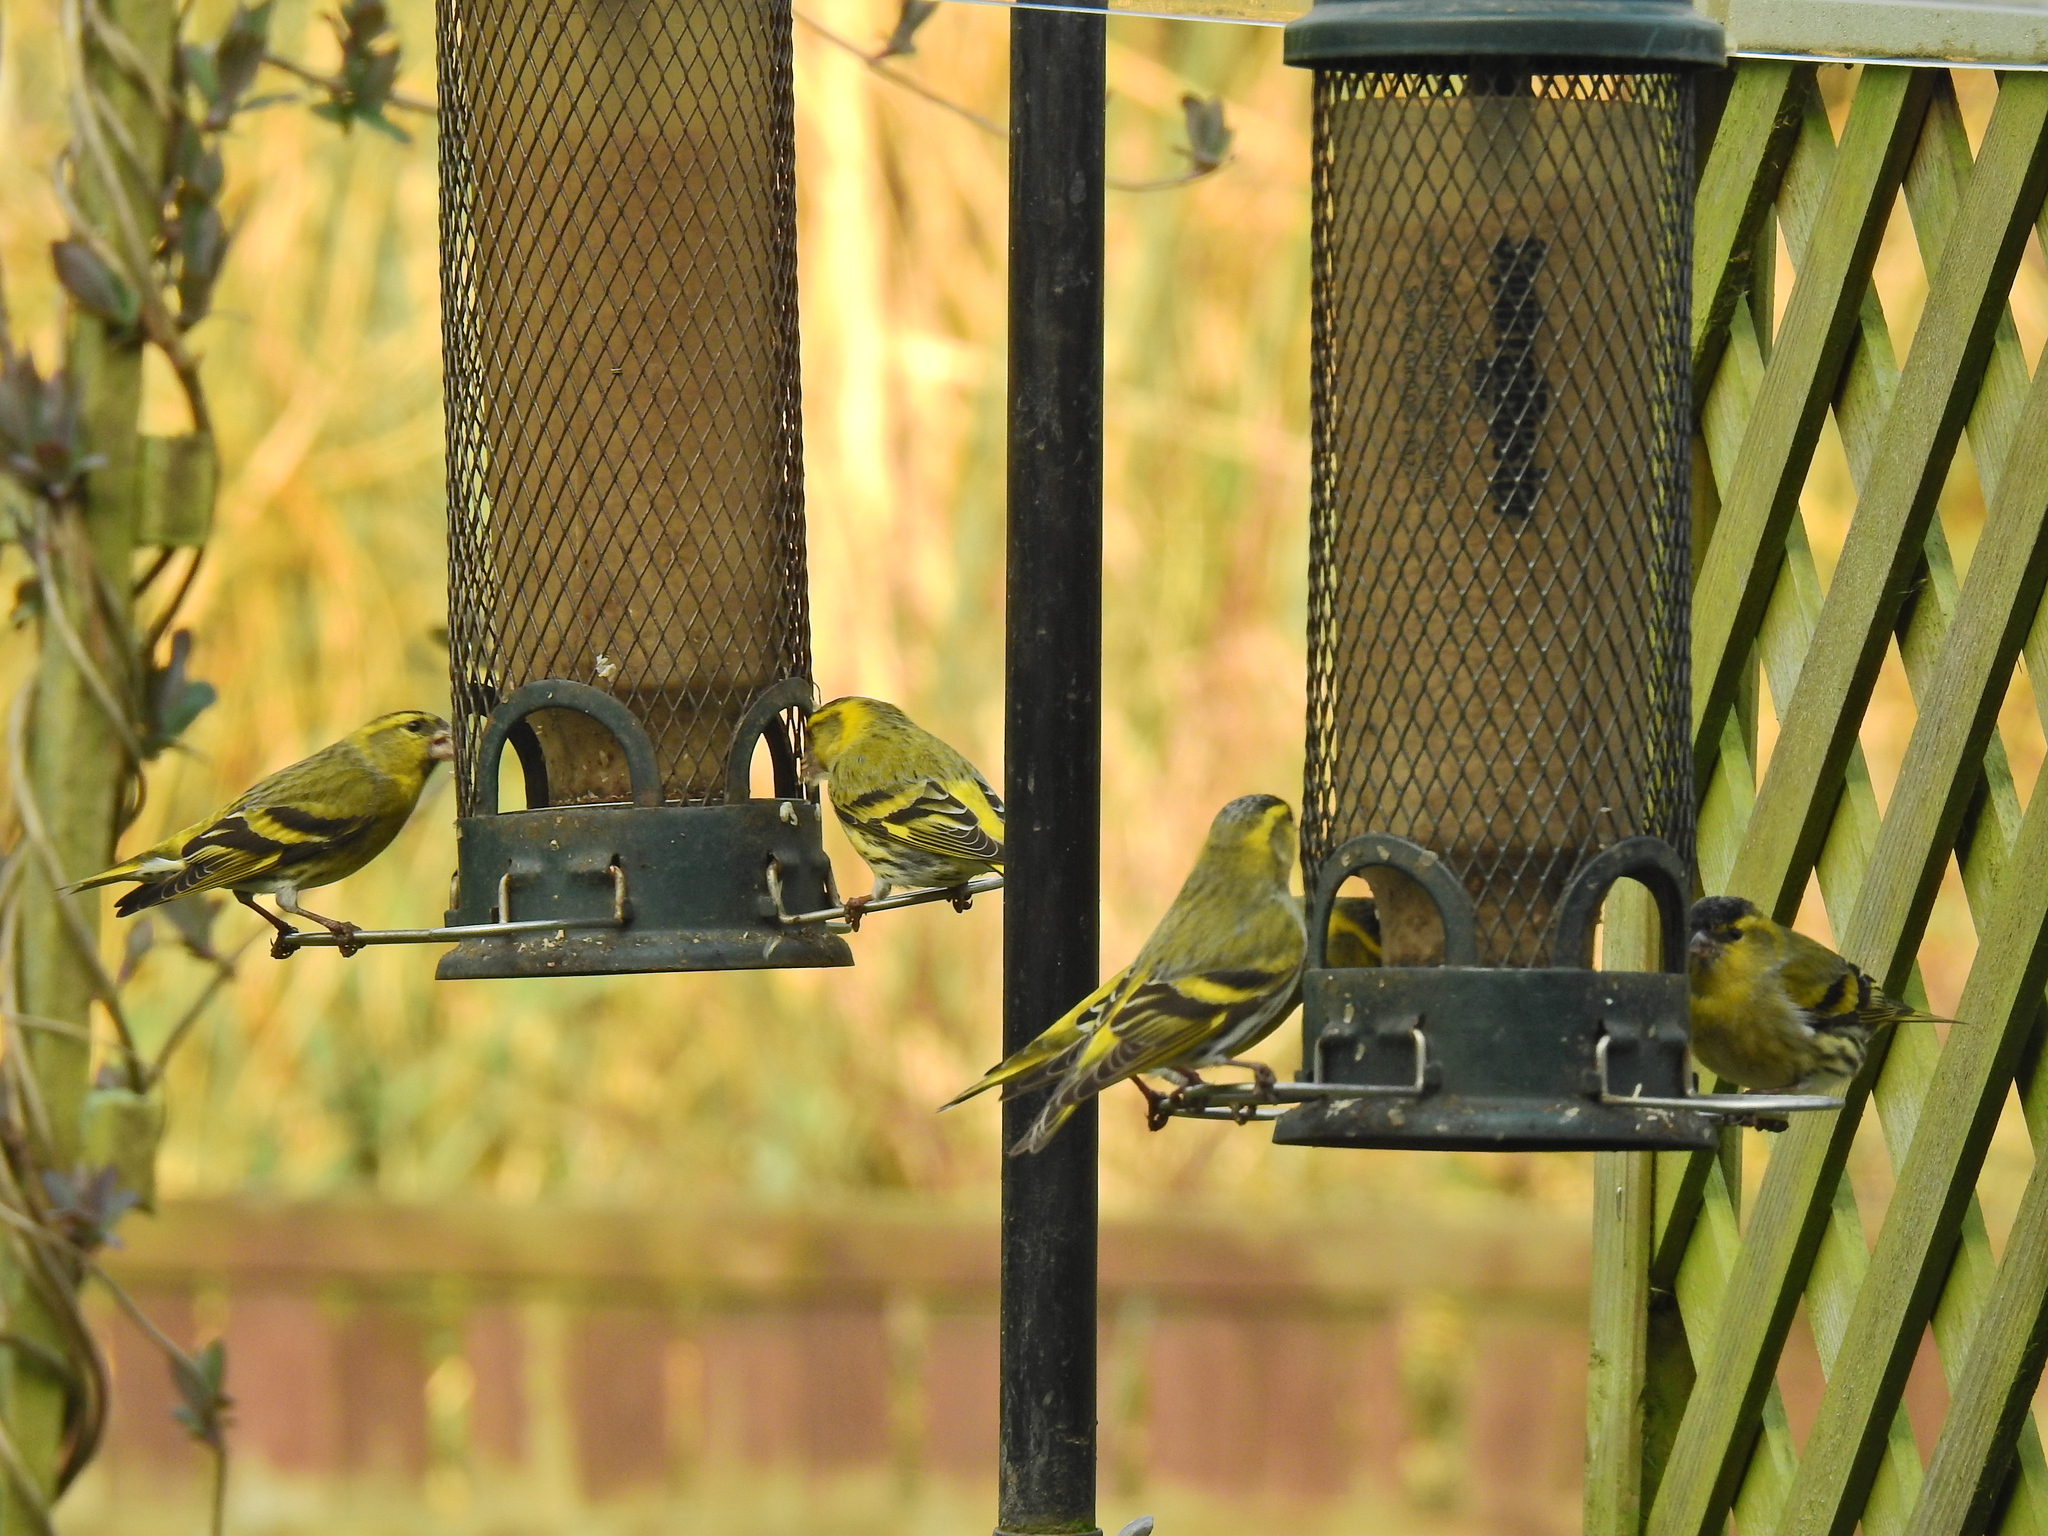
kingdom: Animalia
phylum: Chordata
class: Aves
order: Passeriformes
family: Fringillidae
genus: Spinus
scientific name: Spinus spinus
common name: Eurasian siskin
